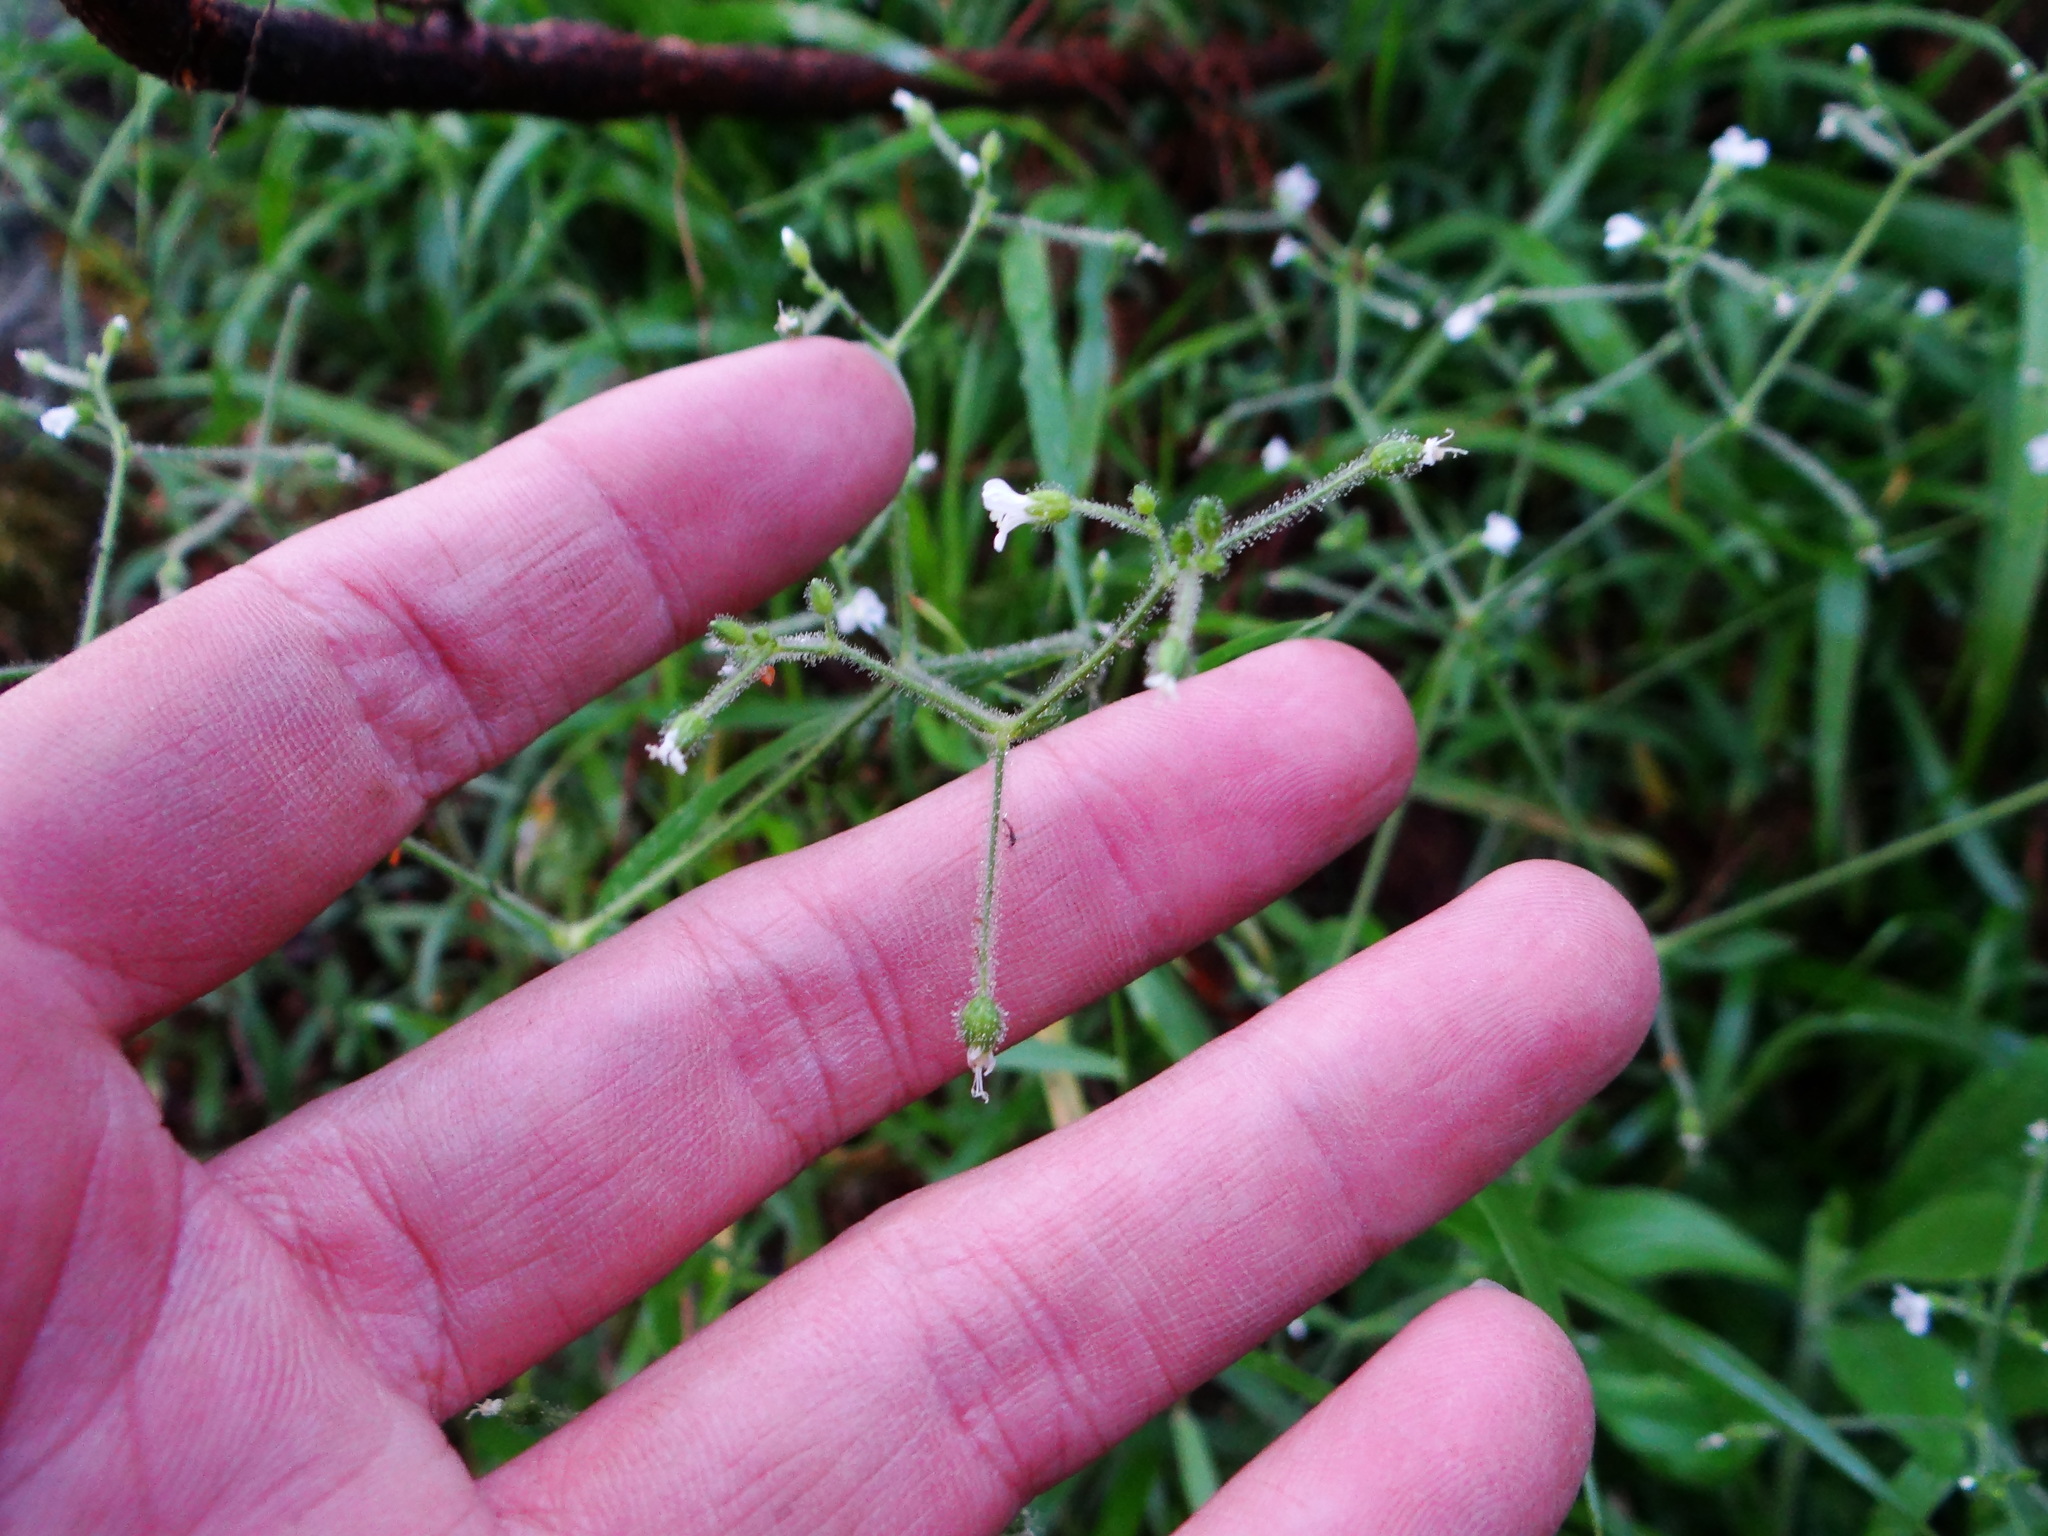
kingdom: Plantae
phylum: Tracheophyta
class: Magnoliopsida
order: Caryophyllales
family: Caryophyllaceae
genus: Cerastium
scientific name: Cerastium subpilosum
